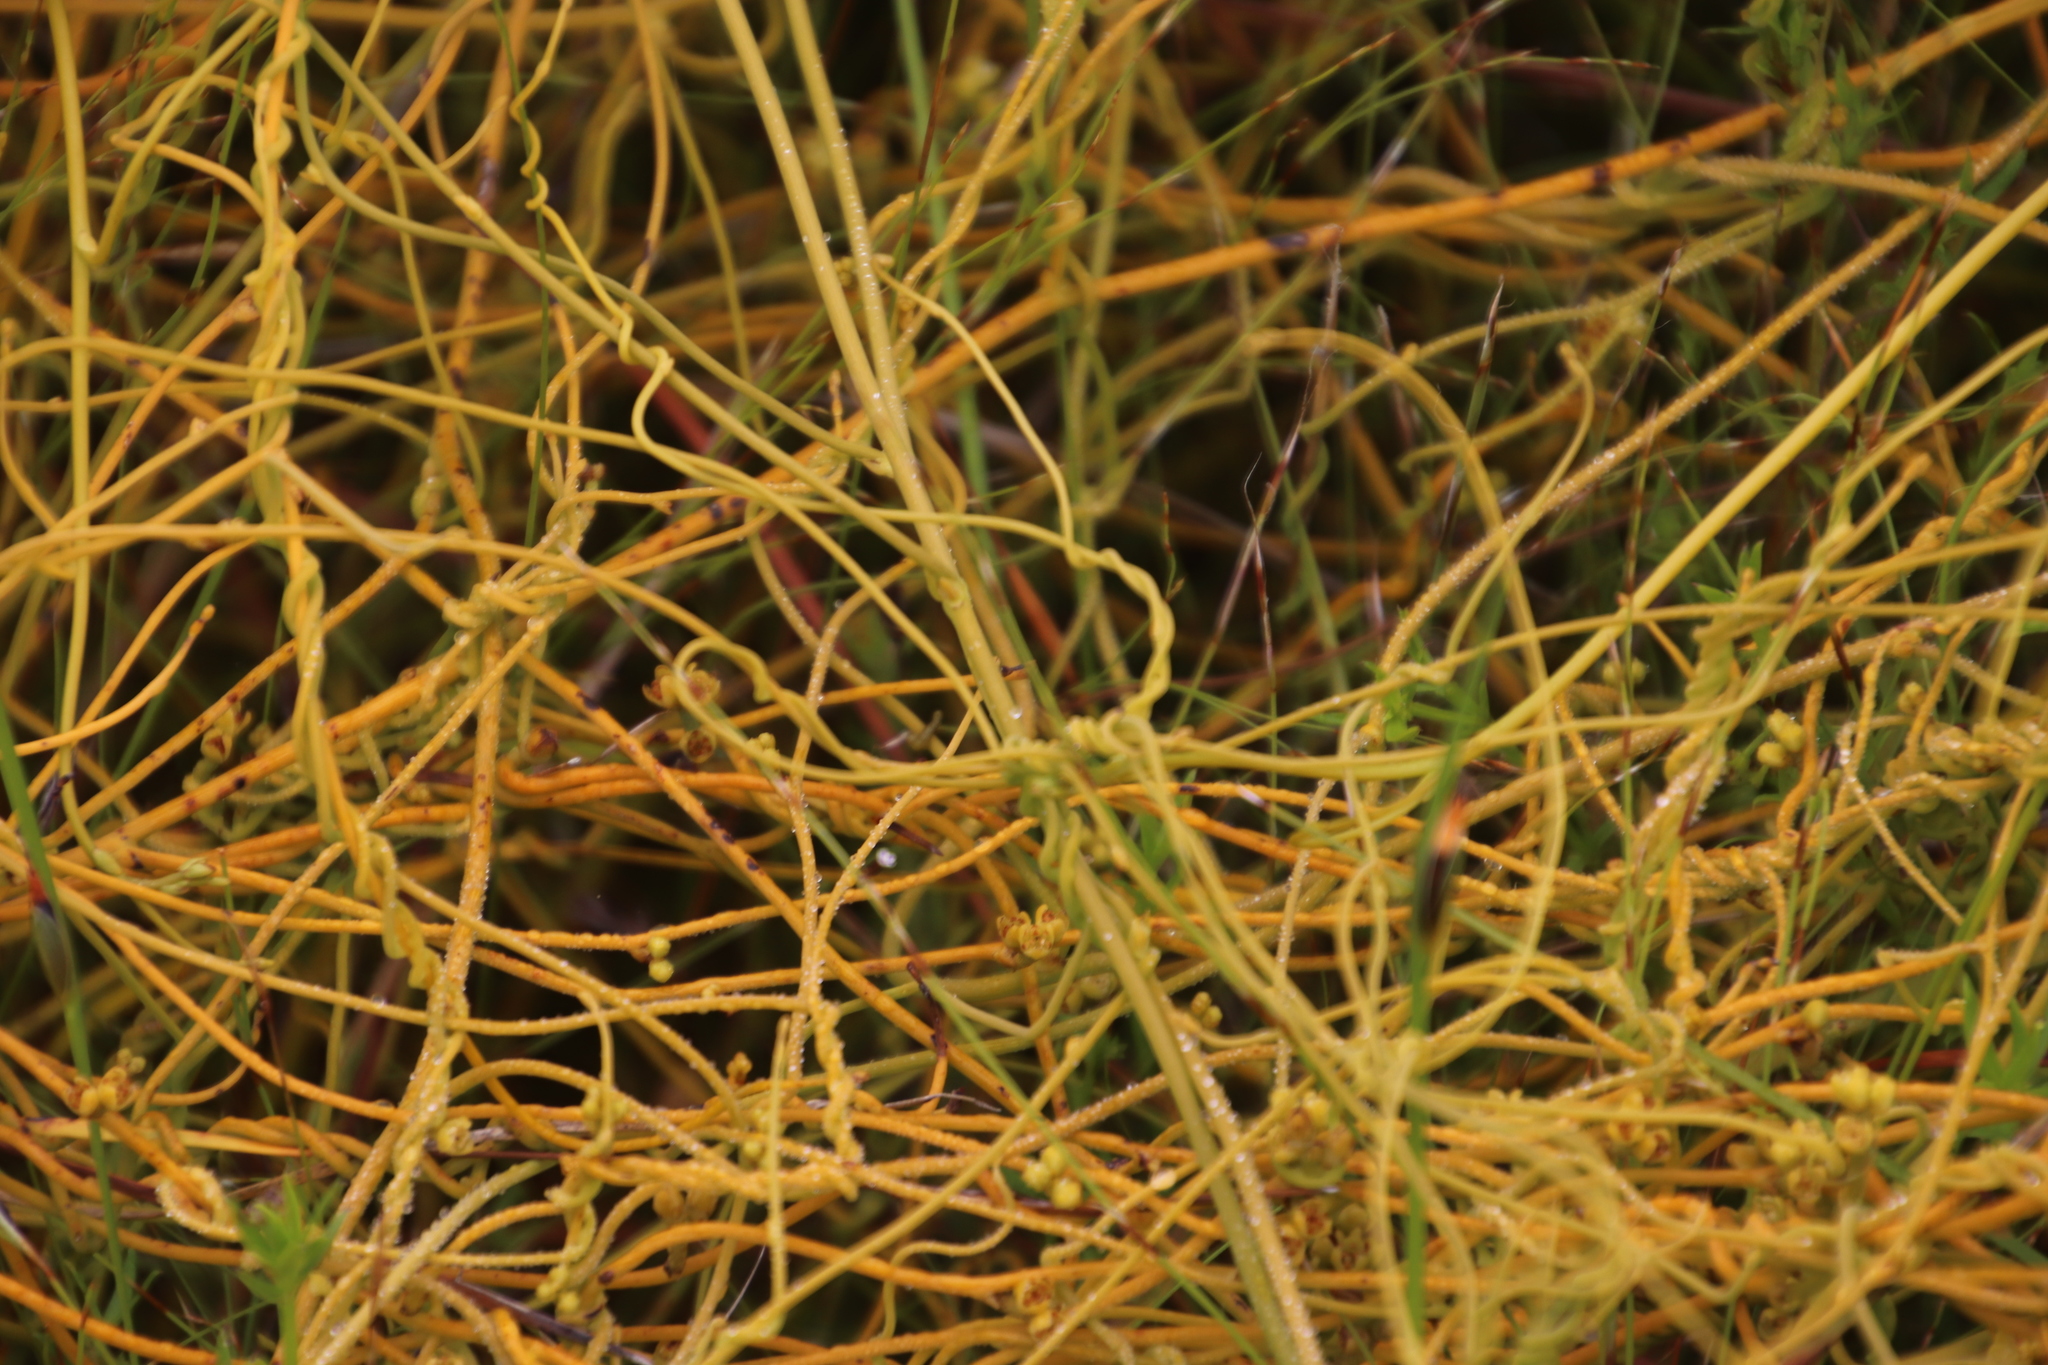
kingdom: Plantae
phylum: Tracheophyta
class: Magnoliopsida
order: Laurales
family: Lauraceae
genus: Cassytha
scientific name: Cassytha ciliolata
